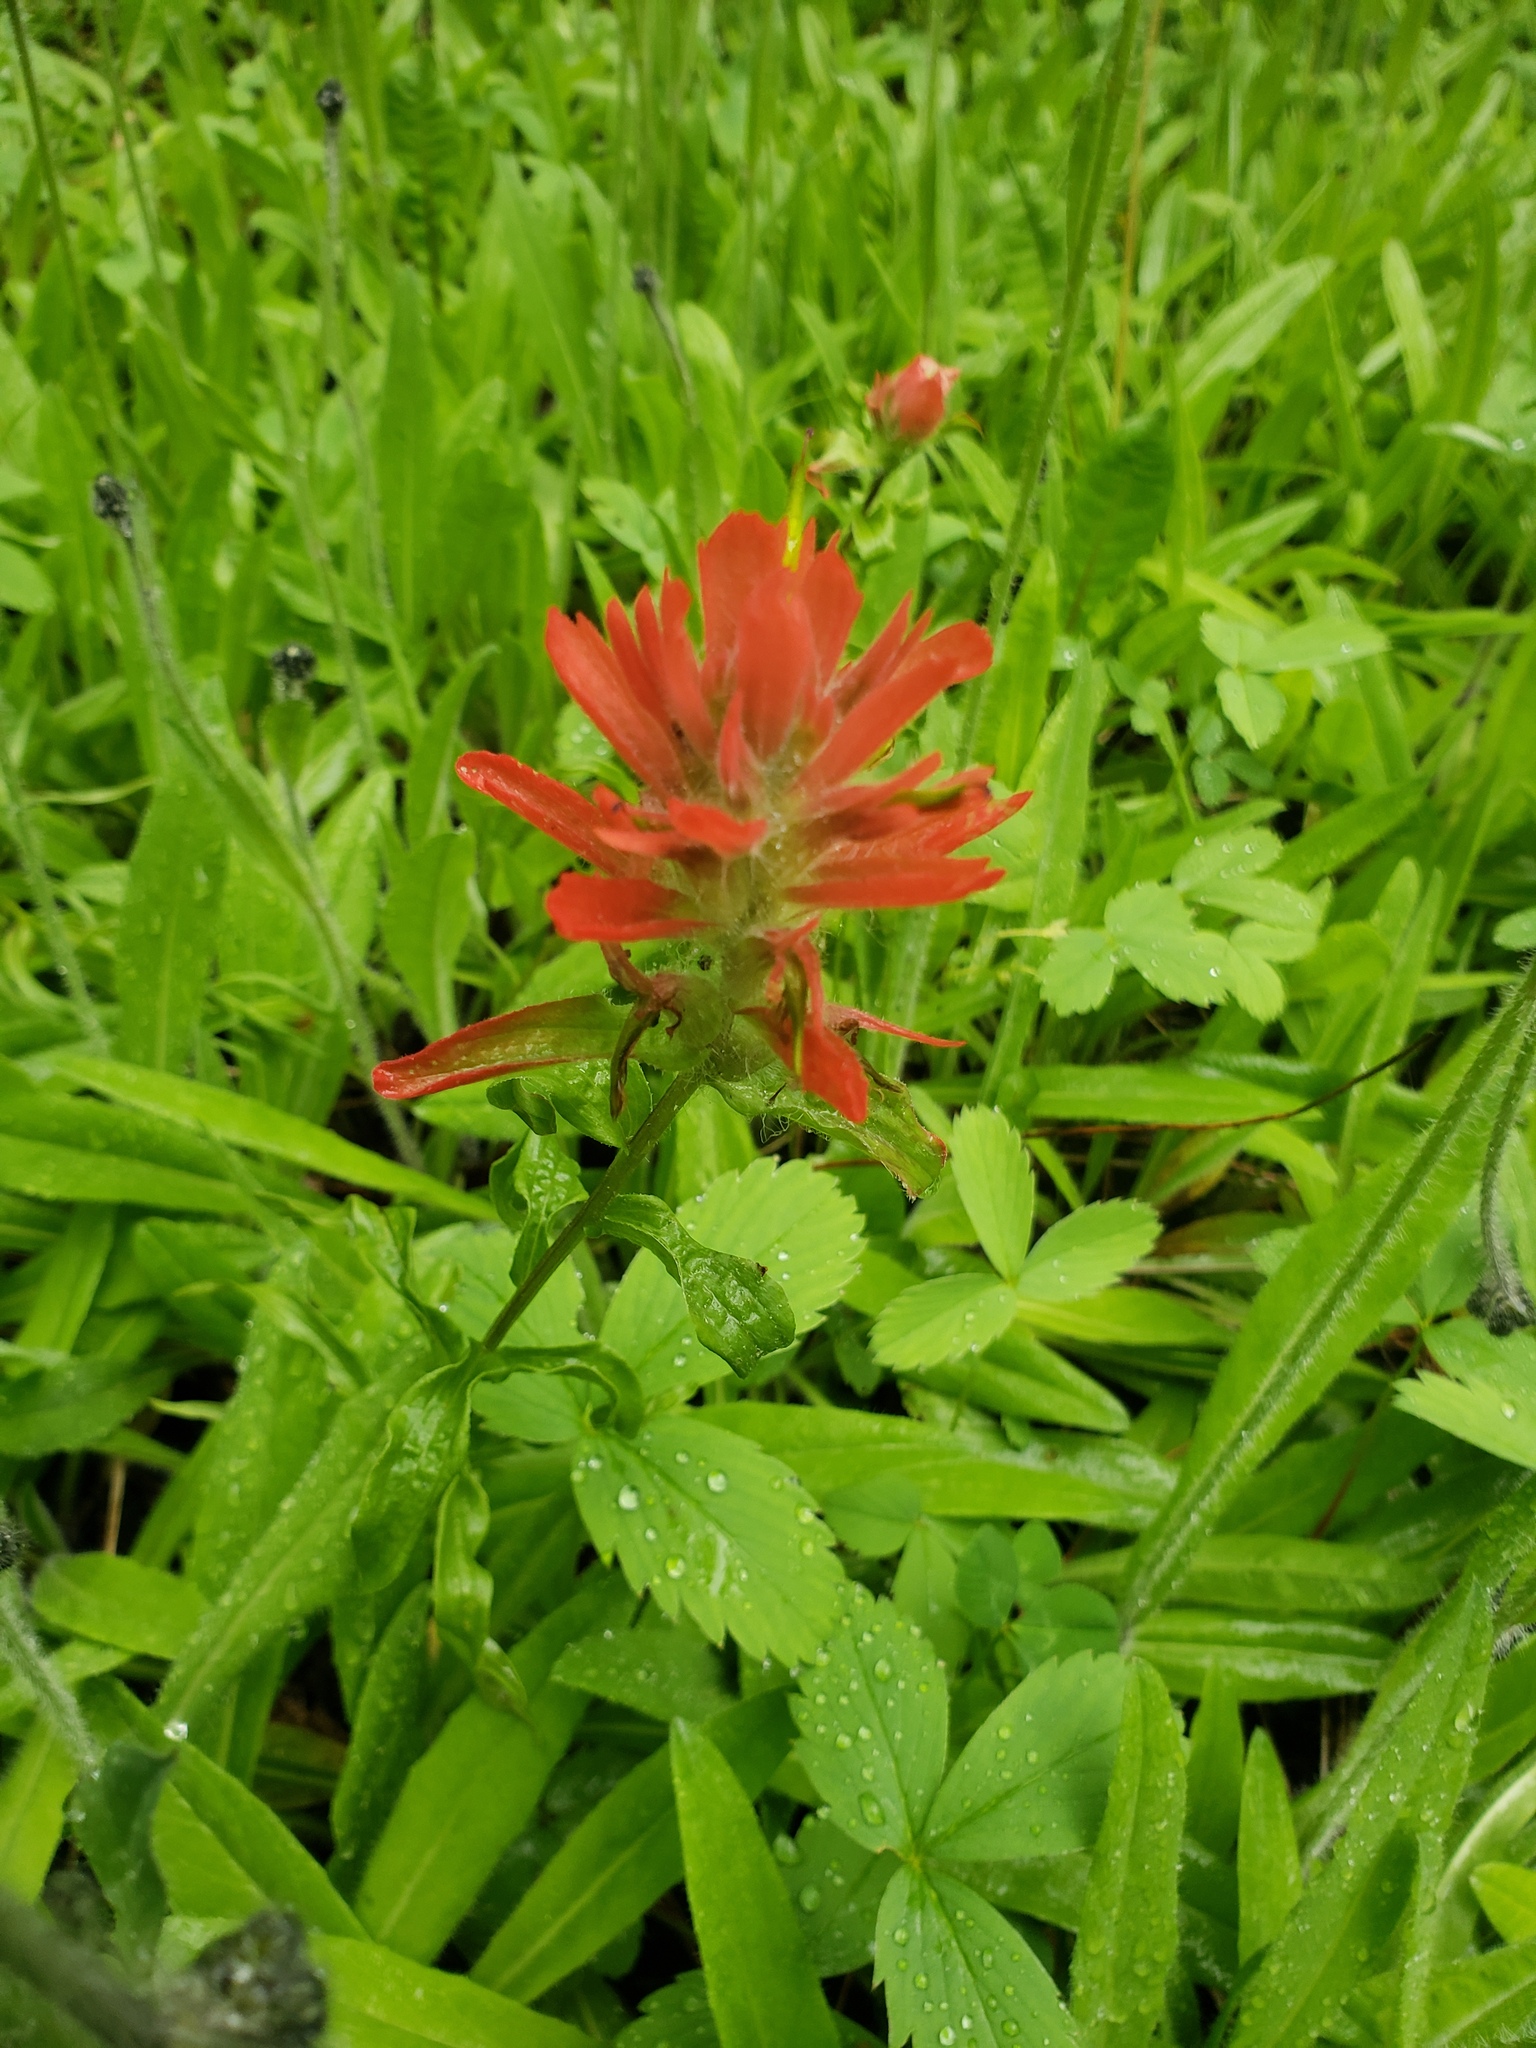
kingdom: Plantae
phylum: Tracheophyta
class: Magnoliopsida
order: Lamiales
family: Orobanchaceae
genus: Castilleja
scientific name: Castilleja miniata
